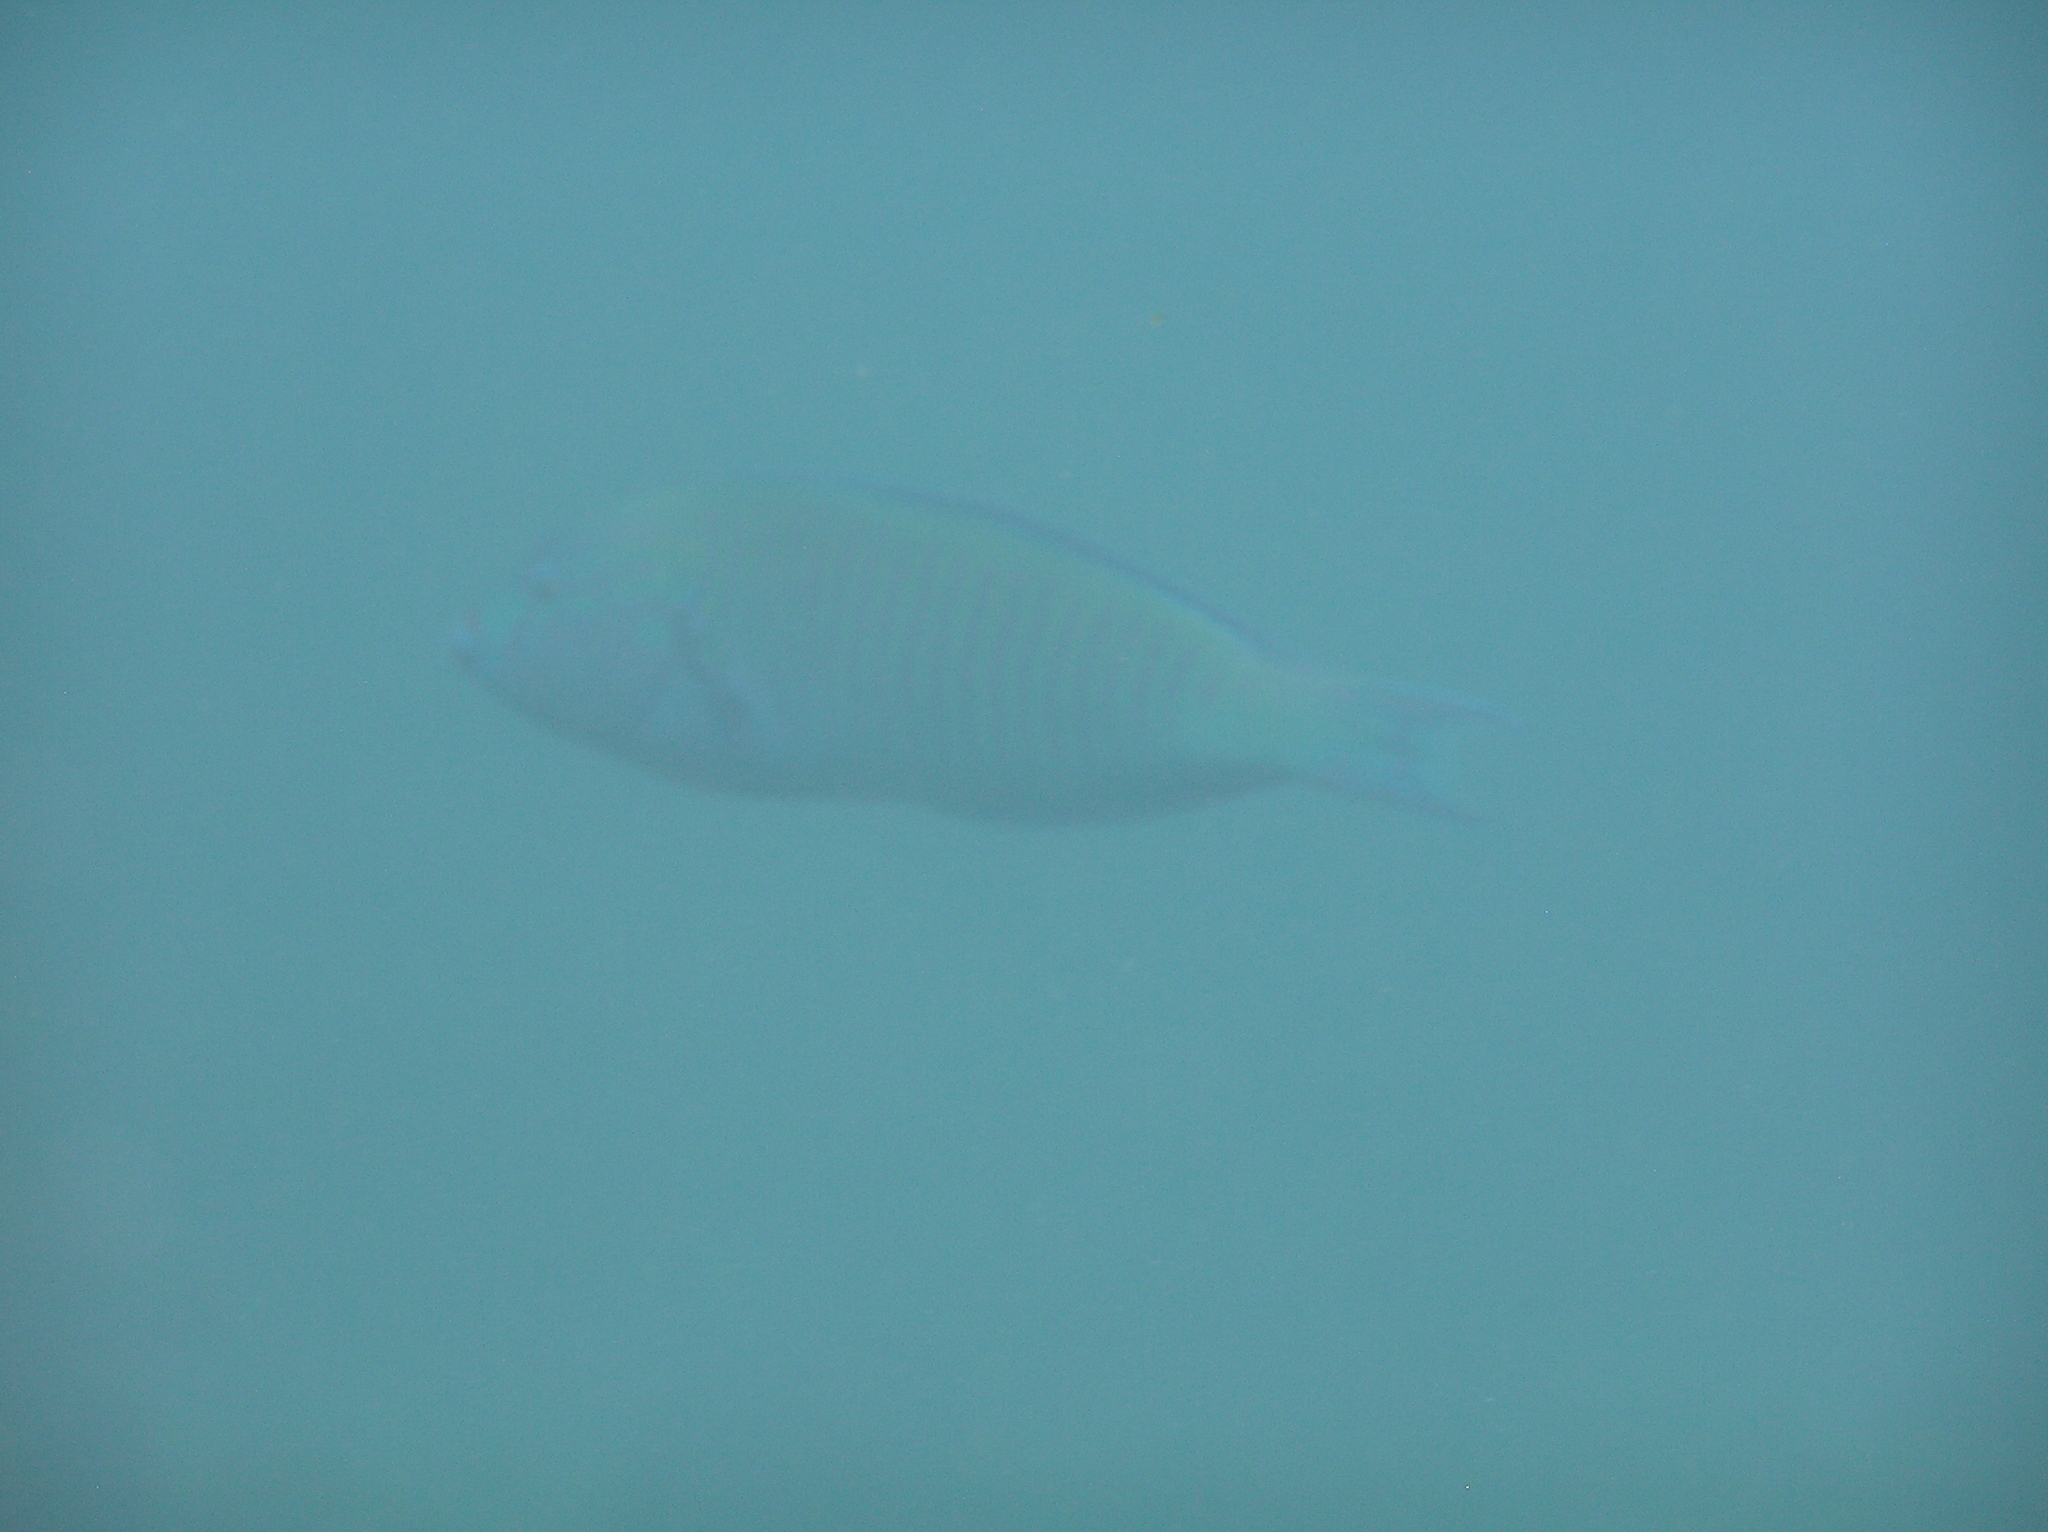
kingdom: Animalia
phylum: Chordata
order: Perciformes
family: Labridae
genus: Hologymnosus
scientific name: Hologymnosus annulatus
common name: Ring wrasse
